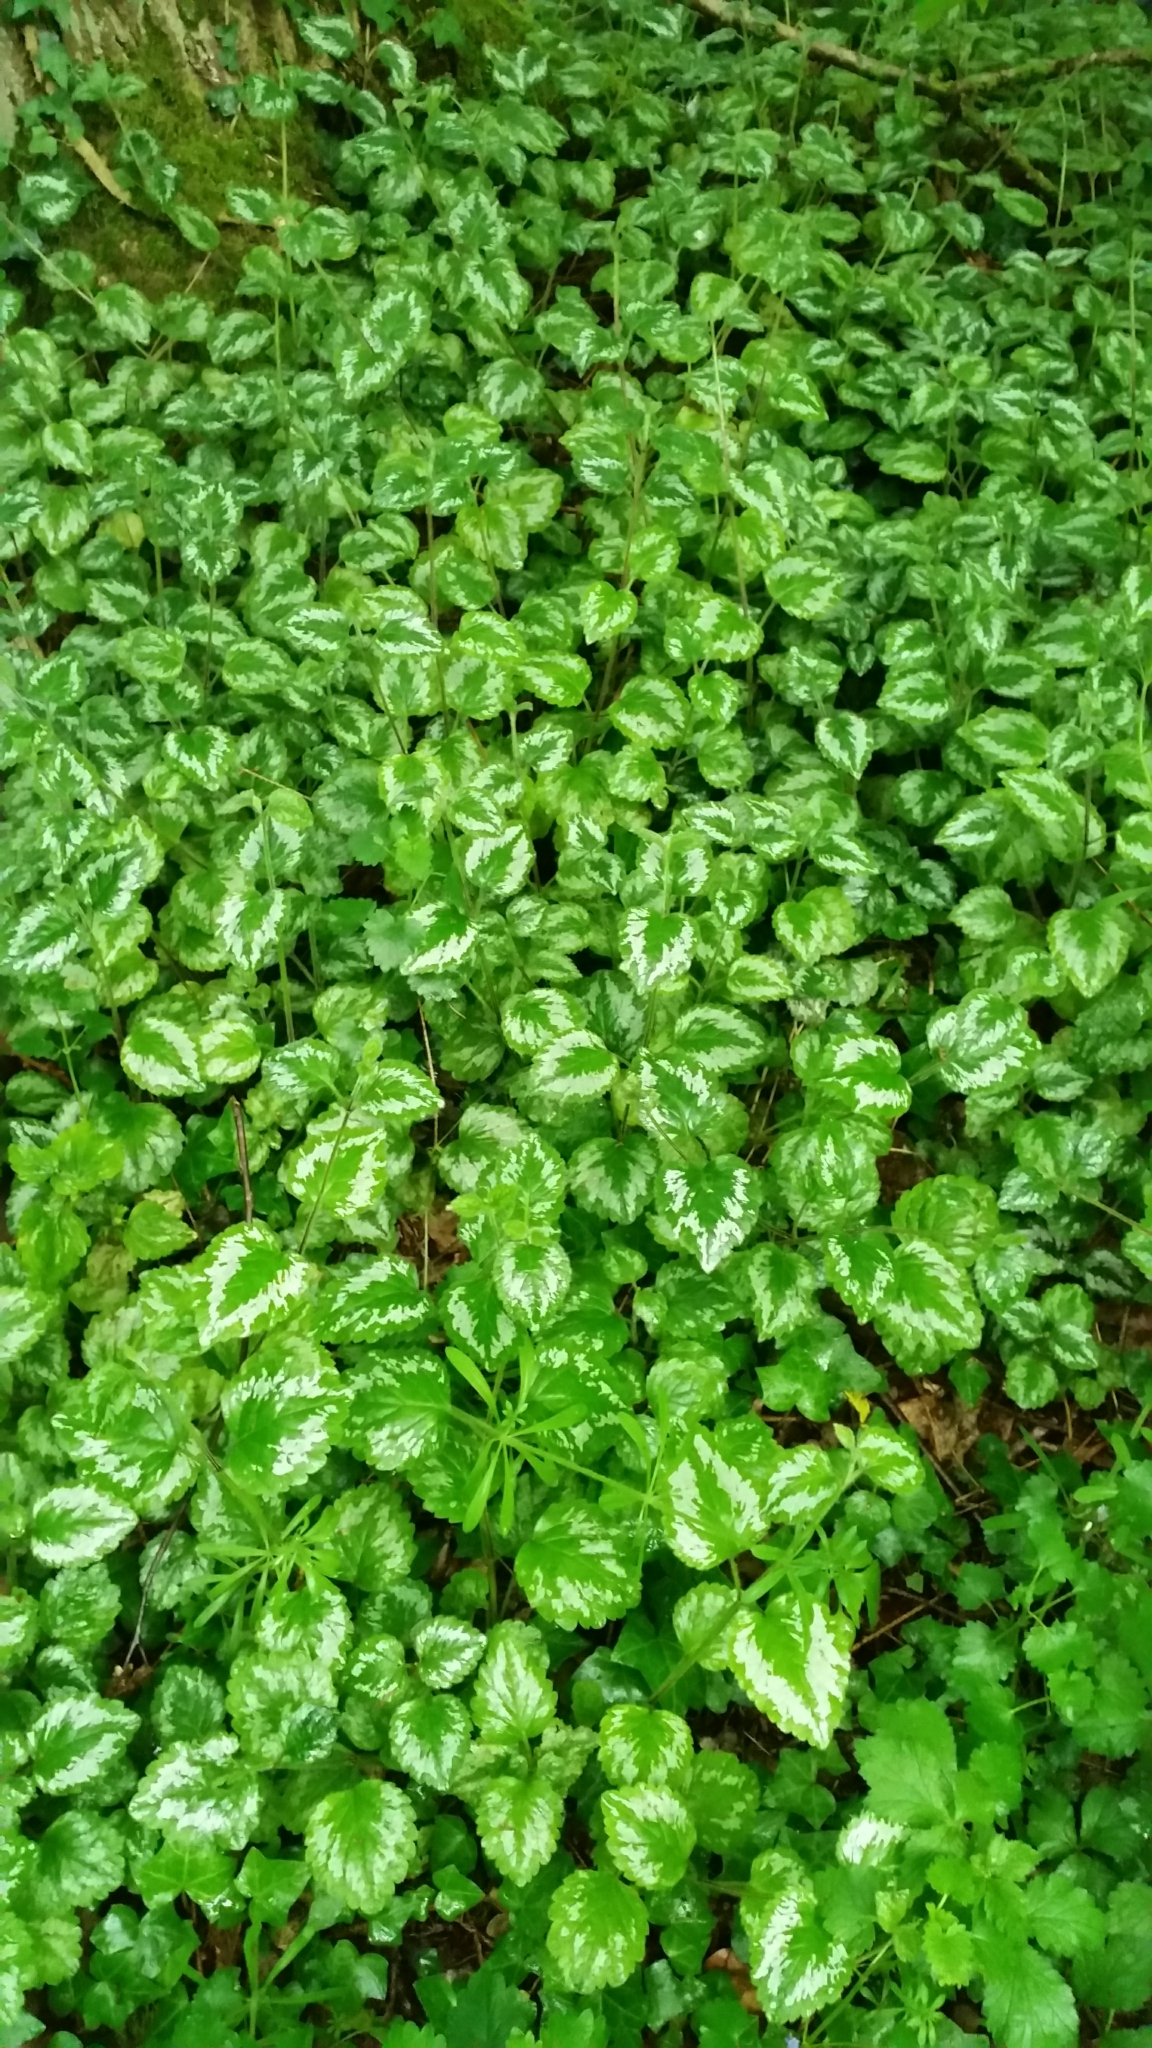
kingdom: Plantae
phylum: Tracheophyta
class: Magnoliopsida
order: Lamiales
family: Lamiaceae
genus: Lamium
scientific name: Lamium galeobdolon
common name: Yellow archangel
